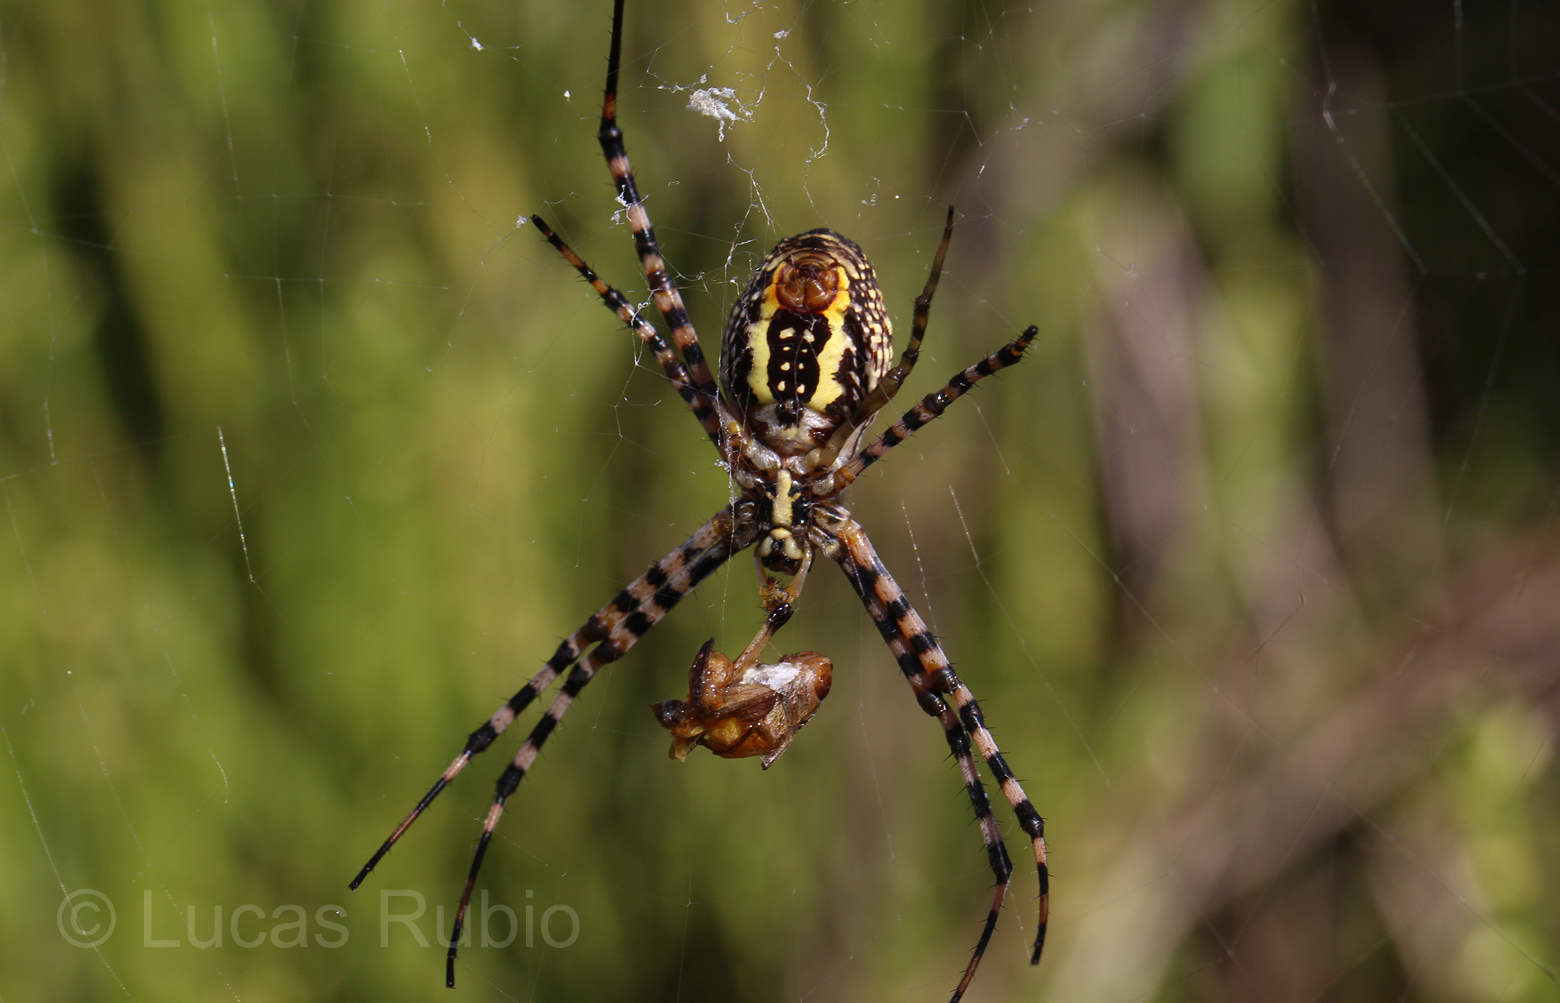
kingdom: Animalia
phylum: Arthropoda
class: Arachnida
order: Araneae
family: Araneidae
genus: Argiope
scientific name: Argiope trifasciata
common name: Banded garden spider
